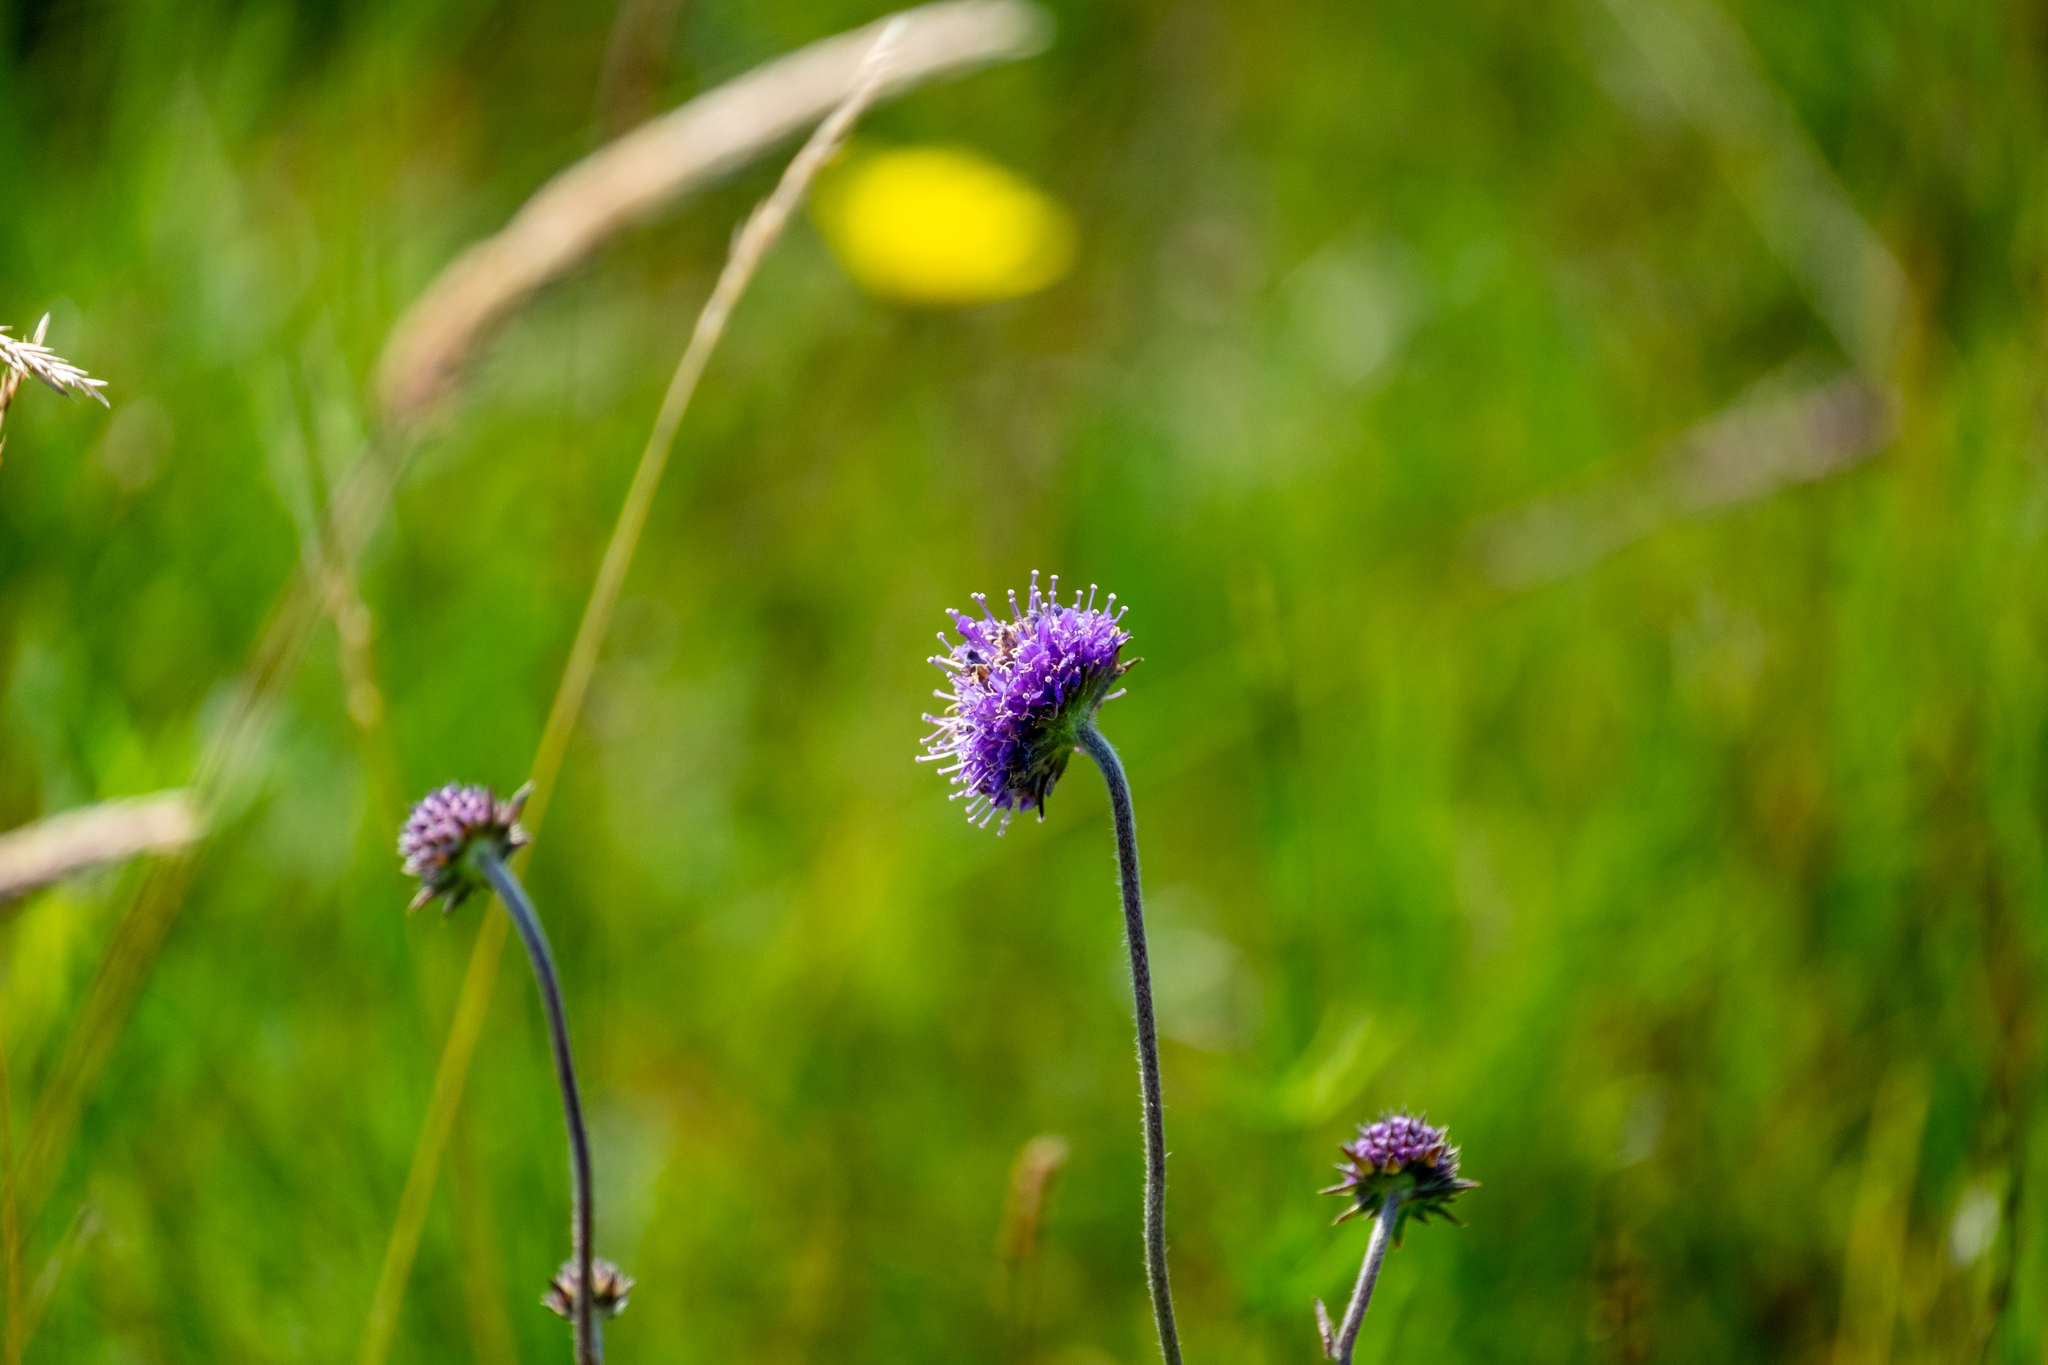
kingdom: Plantae
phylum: Tracheophyta
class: Magnoliopsida
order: Dipsacales
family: Caprifoliaceae
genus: Succisa
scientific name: Succisa pratensis
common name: Devil's-bit
